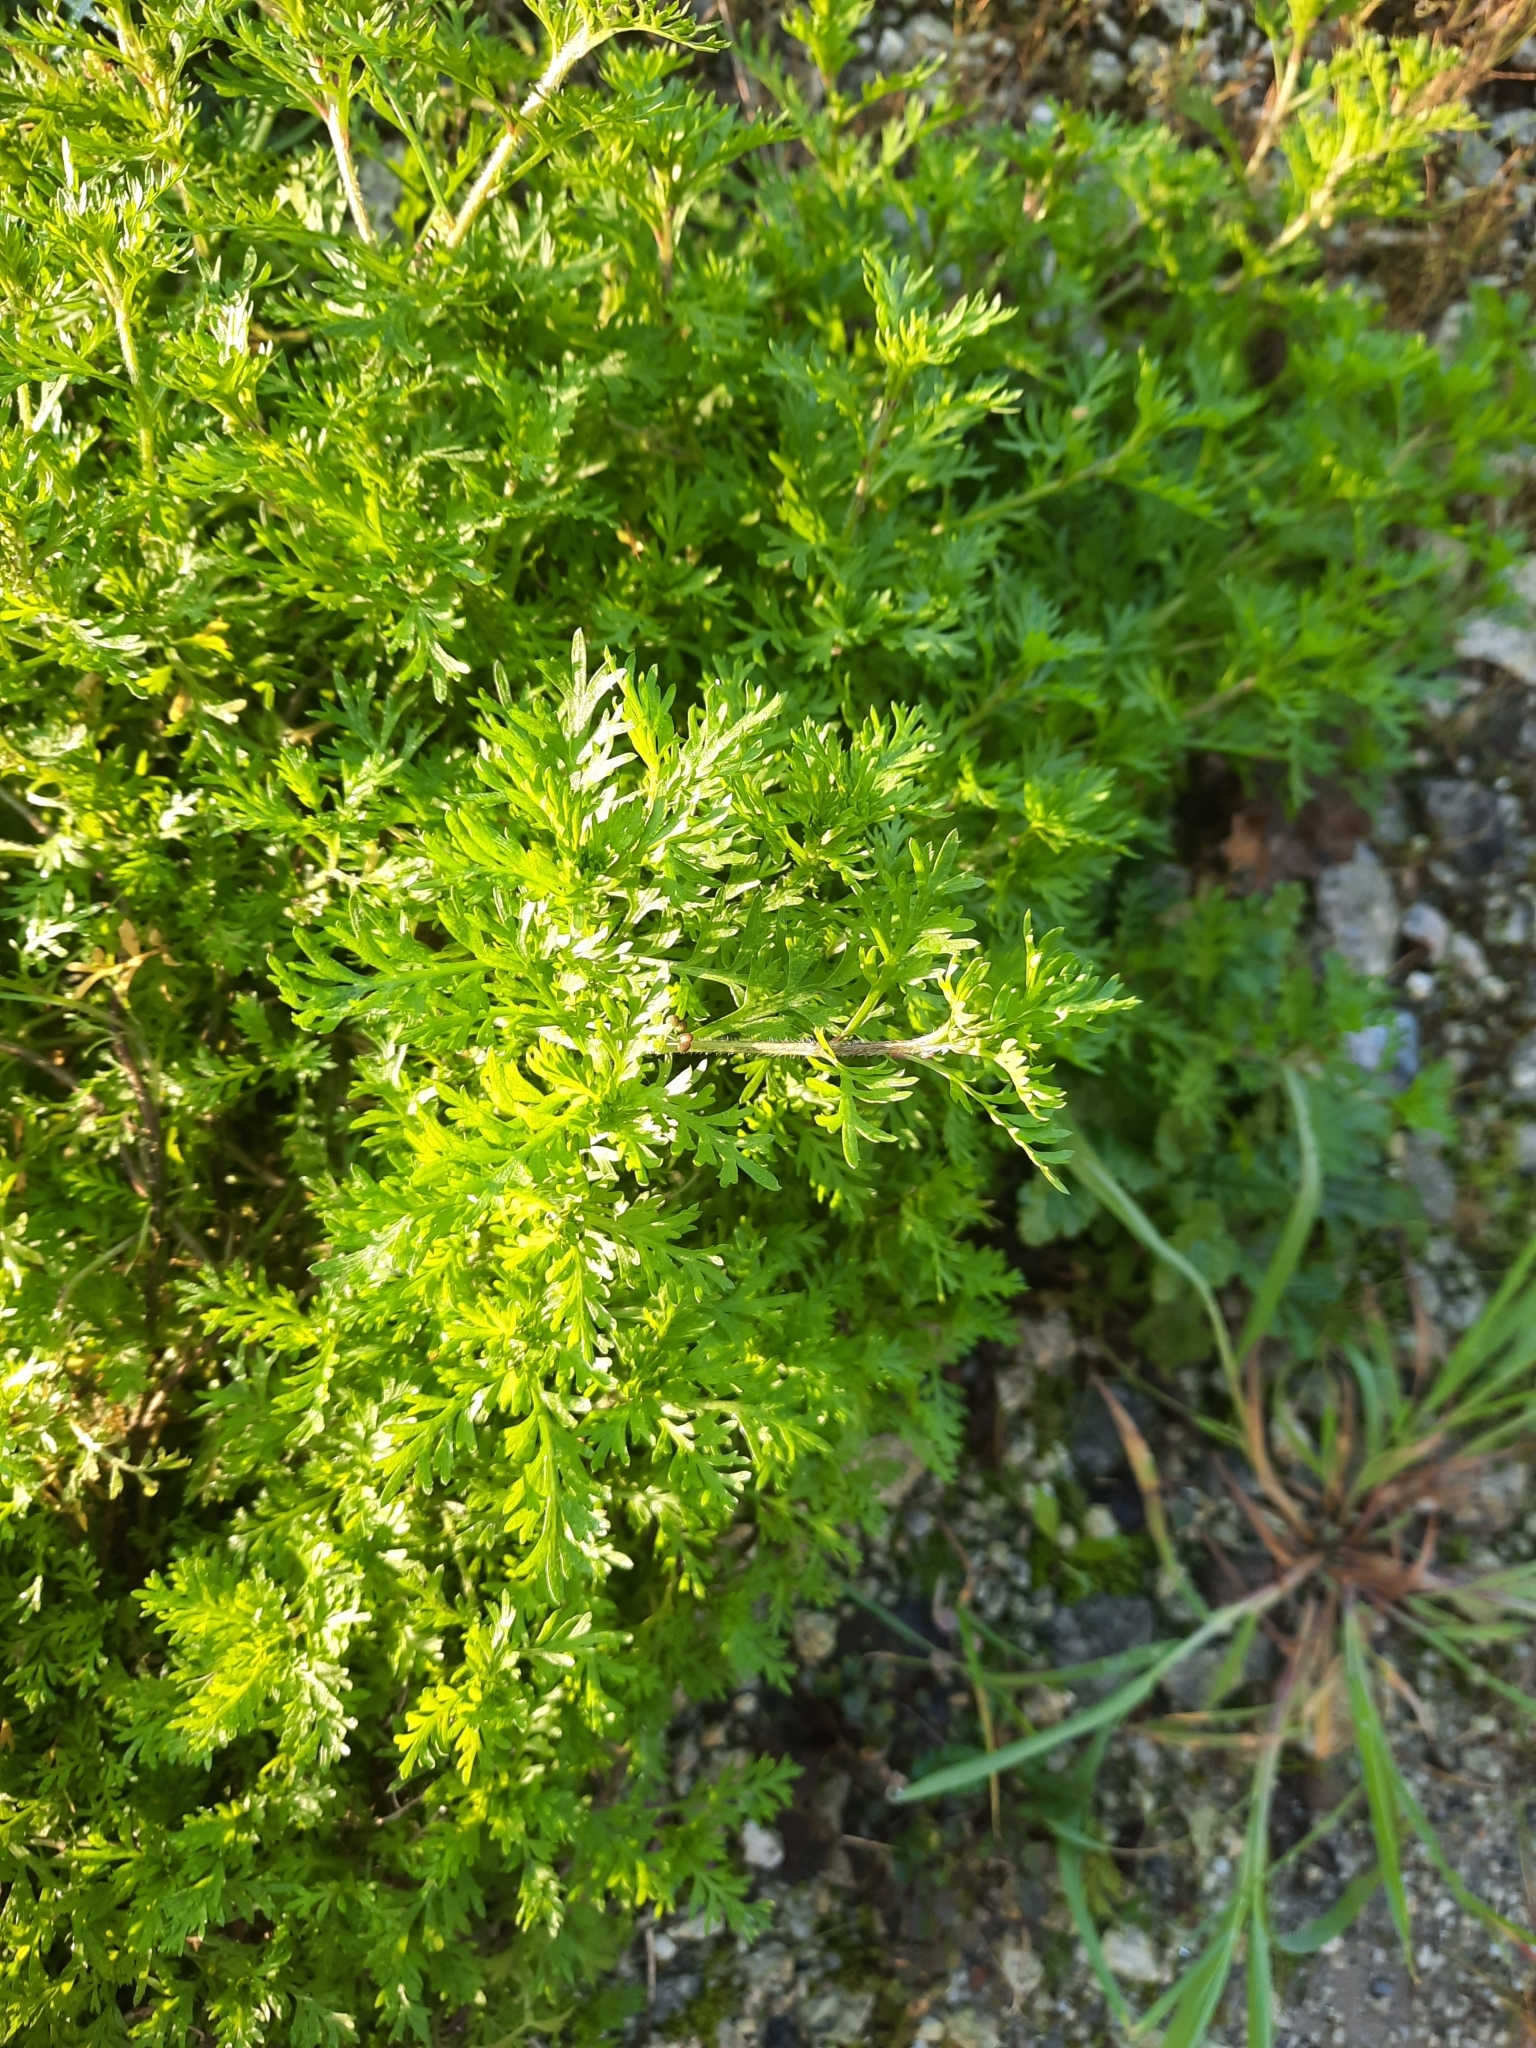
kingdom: Plantae
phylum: Tracheophyta
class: Magnoliopsida
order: Brassicales
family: Brassicaceae
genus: Lepidium
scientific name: Lepidium didymum
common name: Lesser swinecress
